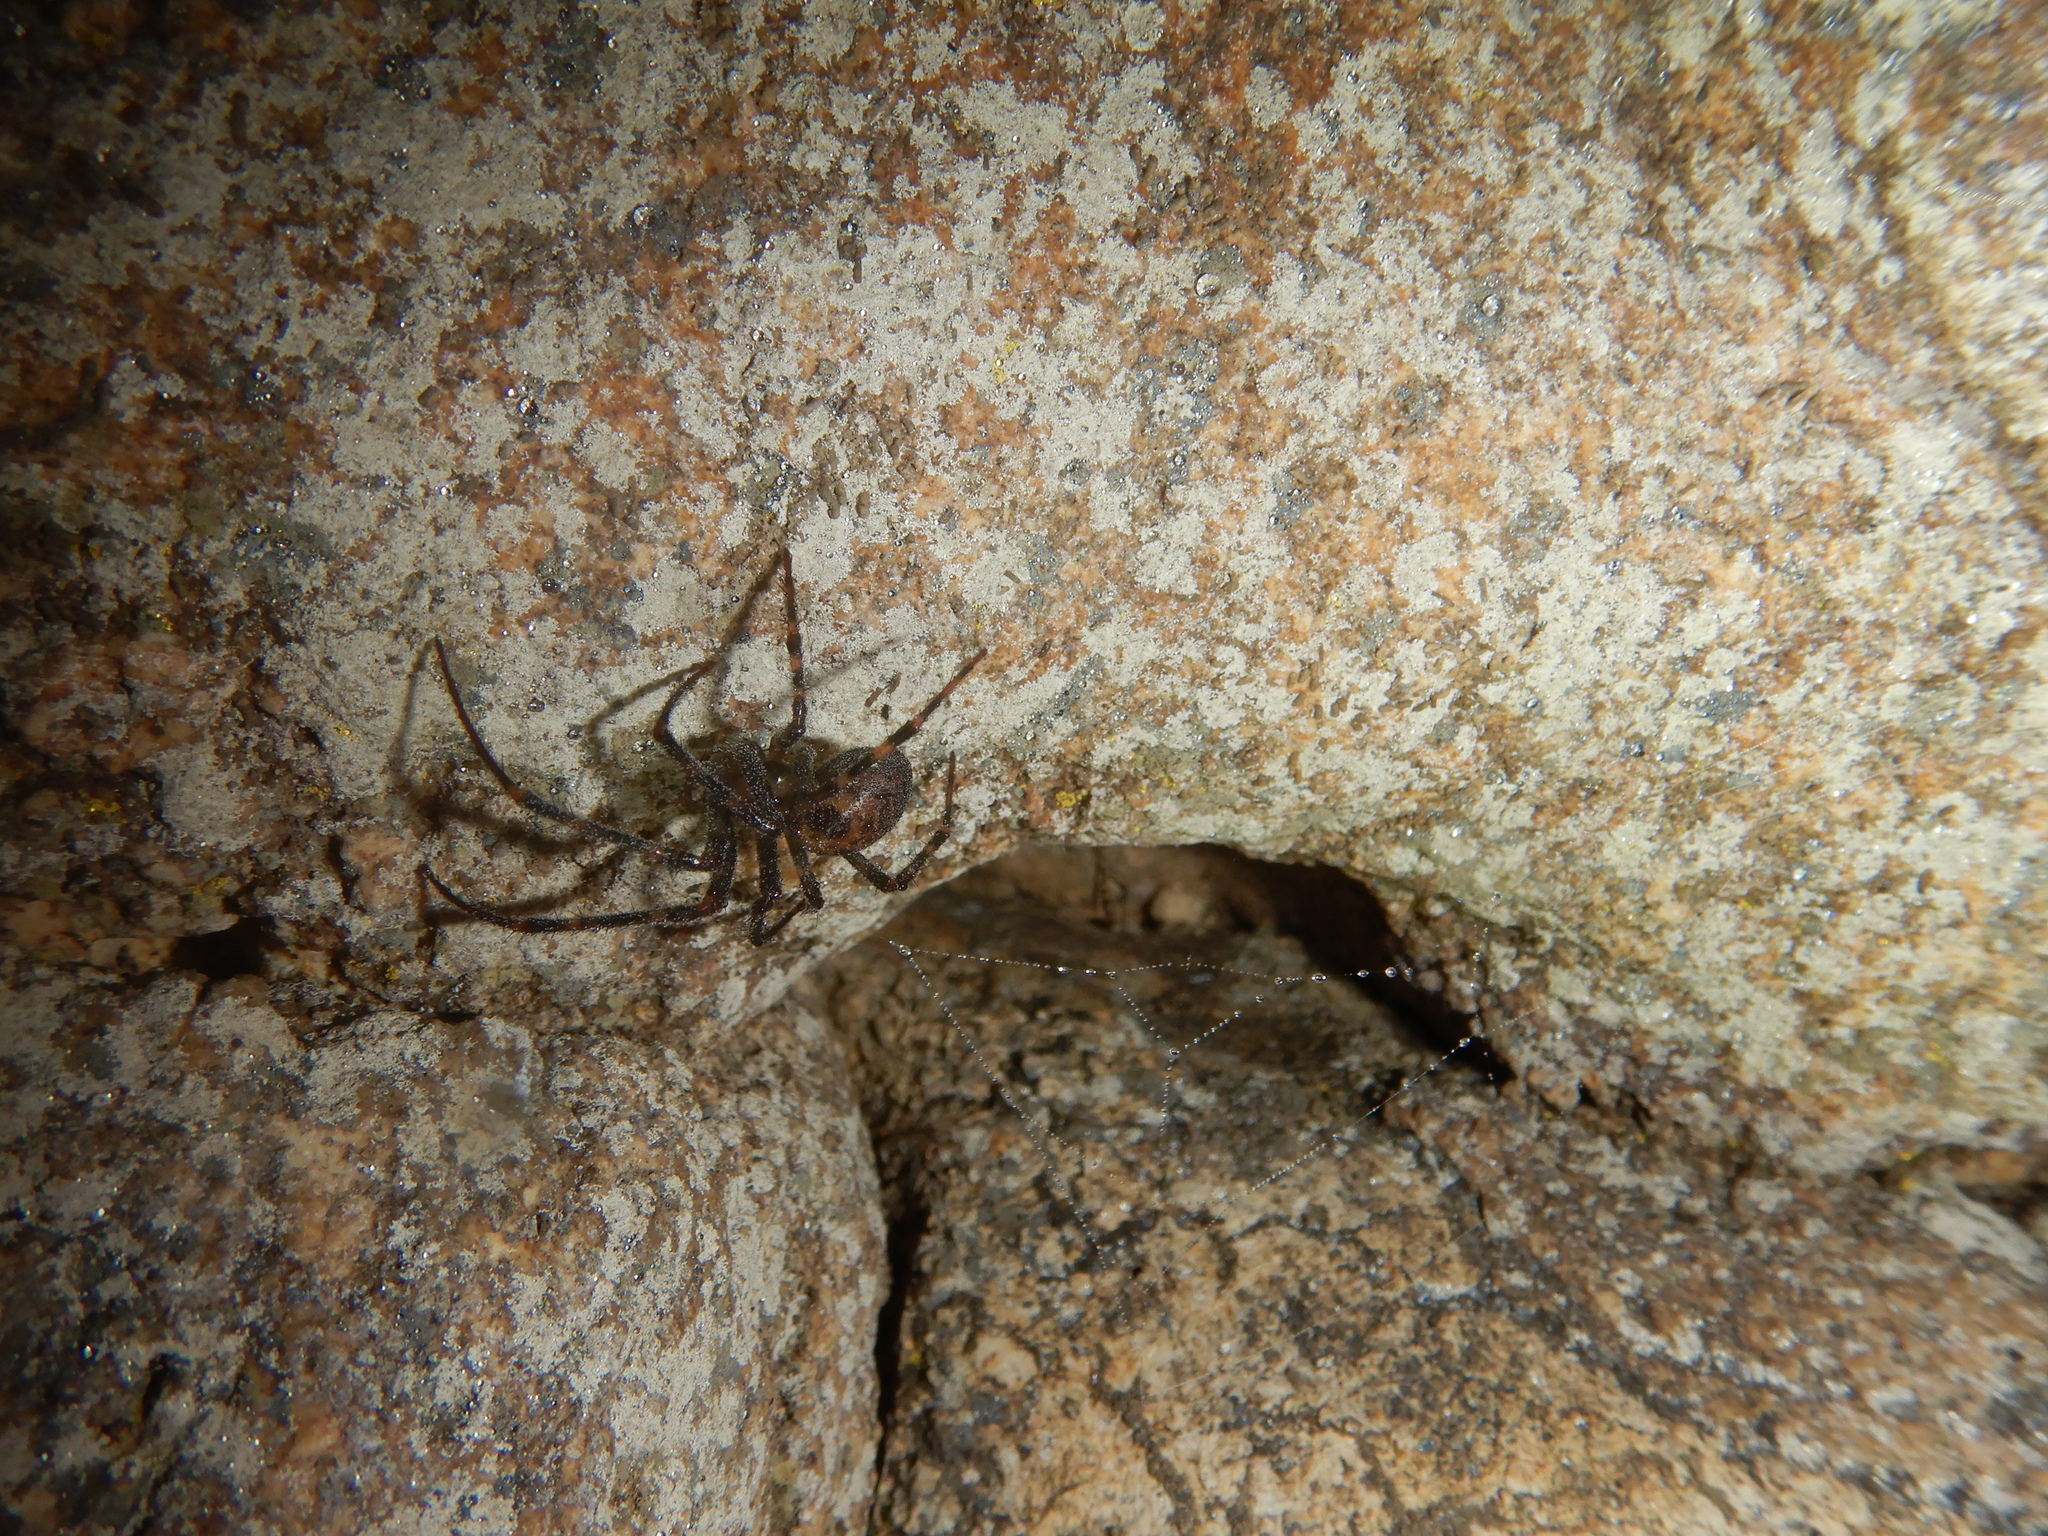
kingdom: Animalia
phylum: Arthropoda
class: Arachnida
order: Araneae
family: Tetragnathidae
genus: Meta
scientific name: Meta menardi
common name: Cave spider
